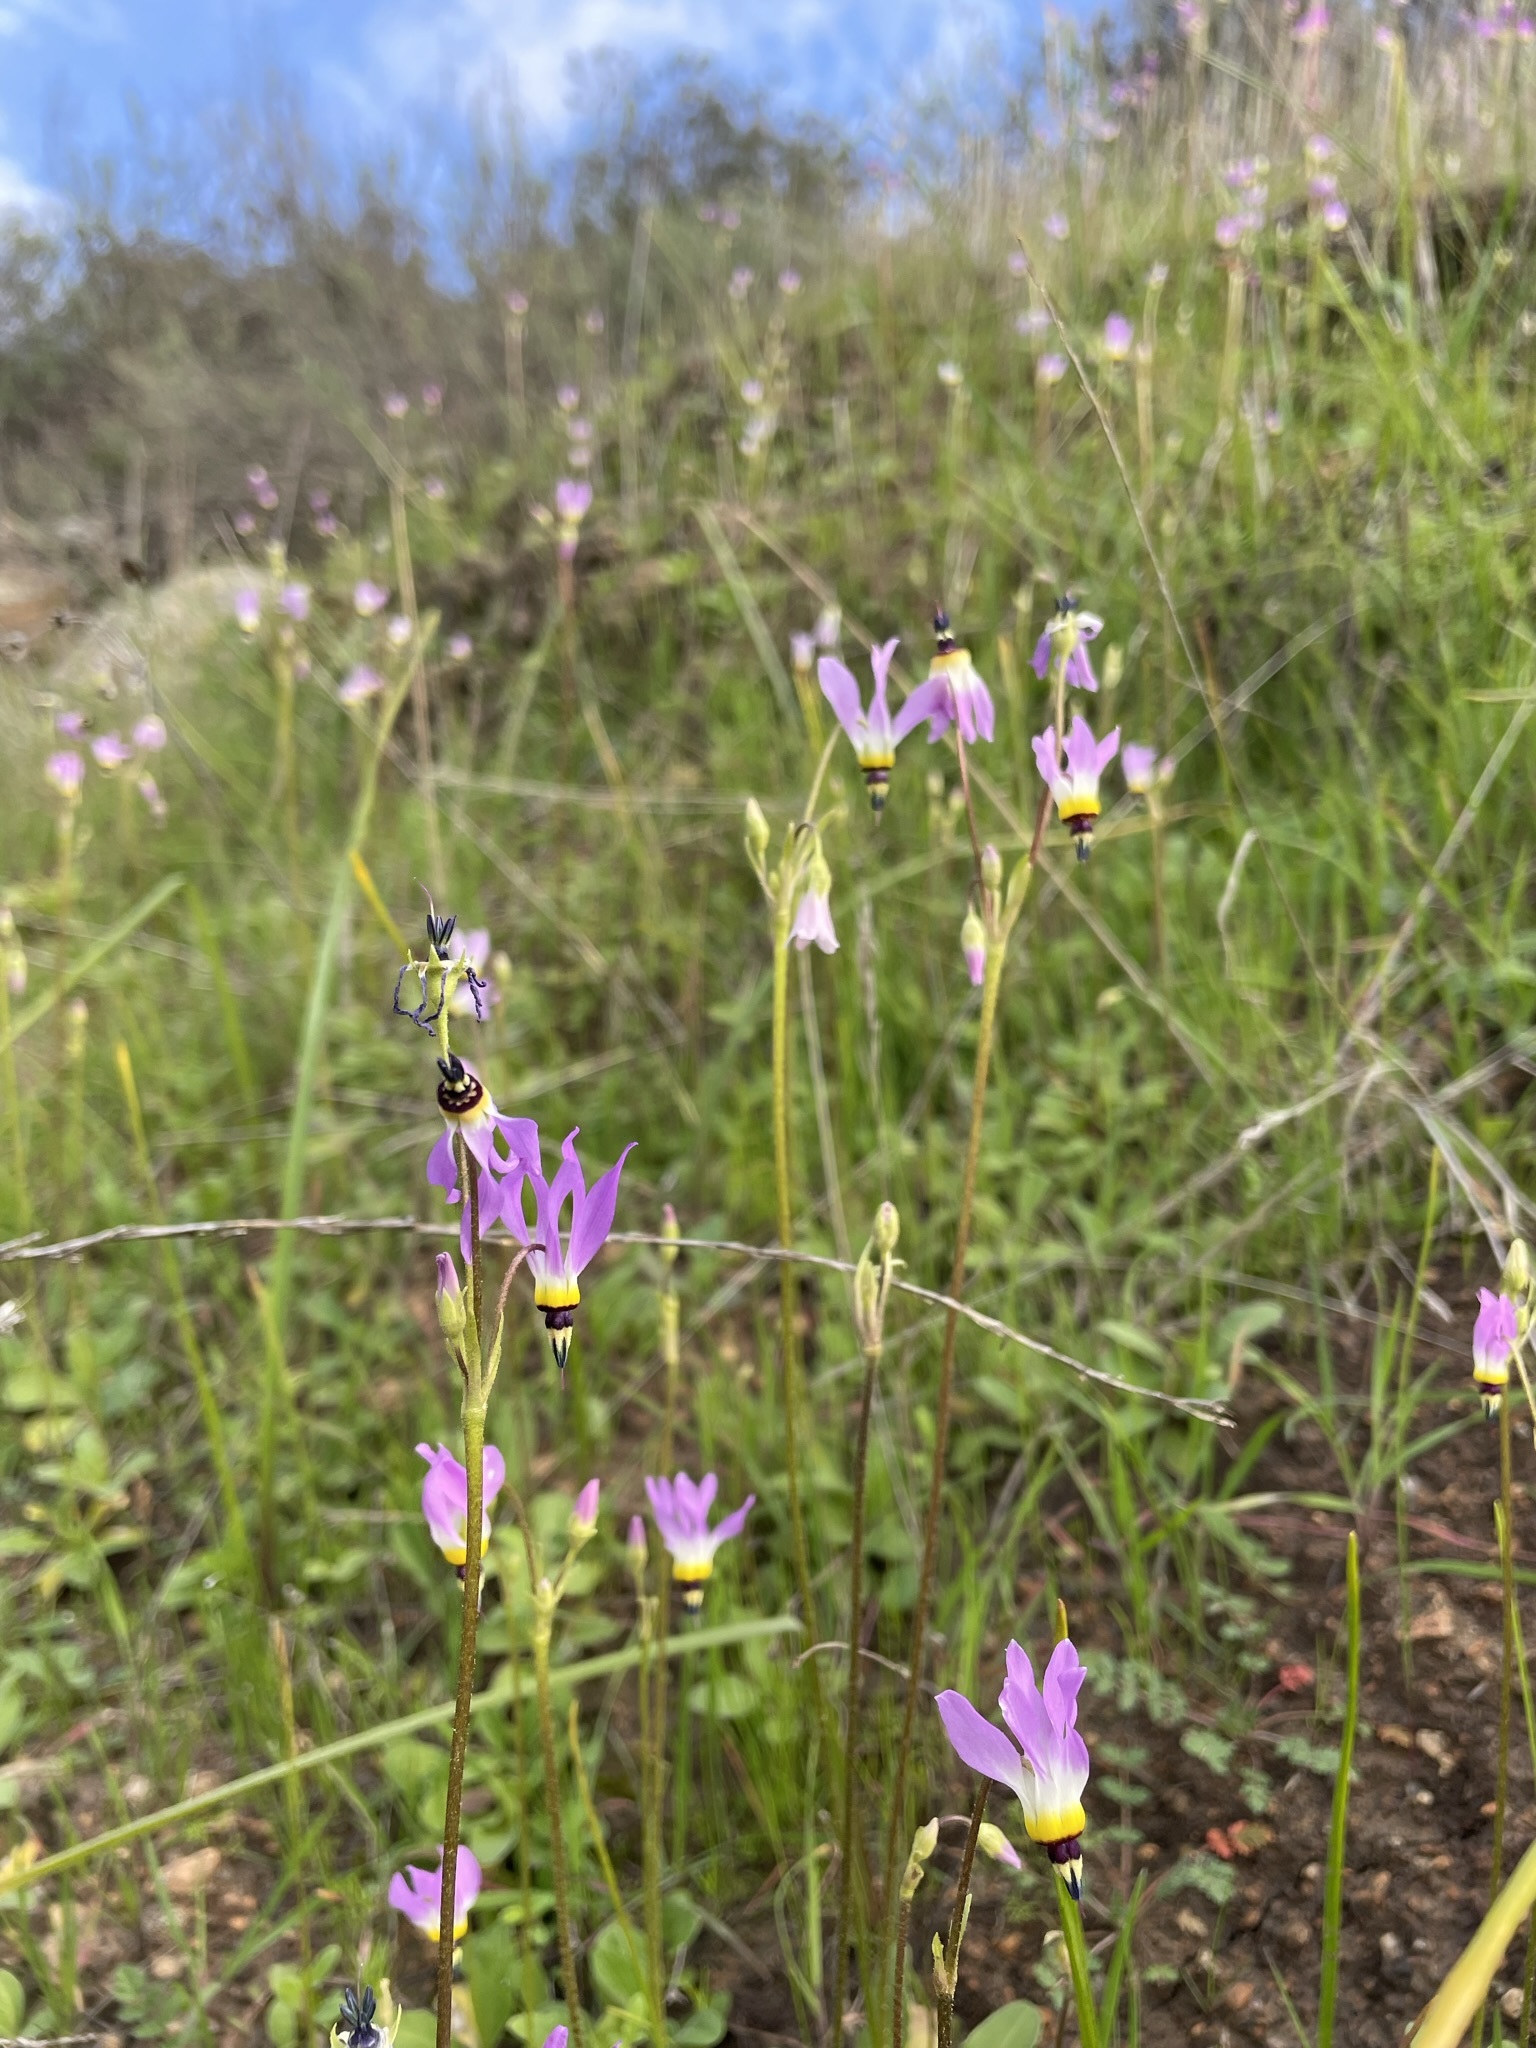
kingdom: Plantae
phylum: Tracheophyta
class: Magnoliopsida
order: Ericales
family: Primulaceae
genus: Dodecatheon
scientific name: Dodecatheon clevelandii
